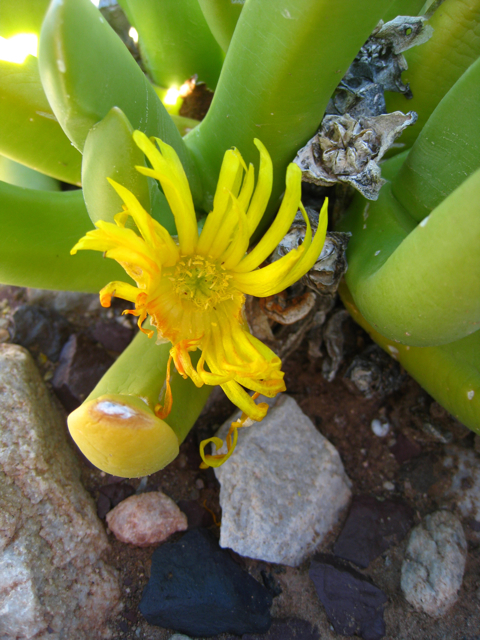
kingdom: Plantae
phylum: Tracheophyta
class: Magnoliopsida
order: Caryophyllales
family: Aizoaceae
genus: Glottiphyllum
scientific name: Glottiphyllum regium
